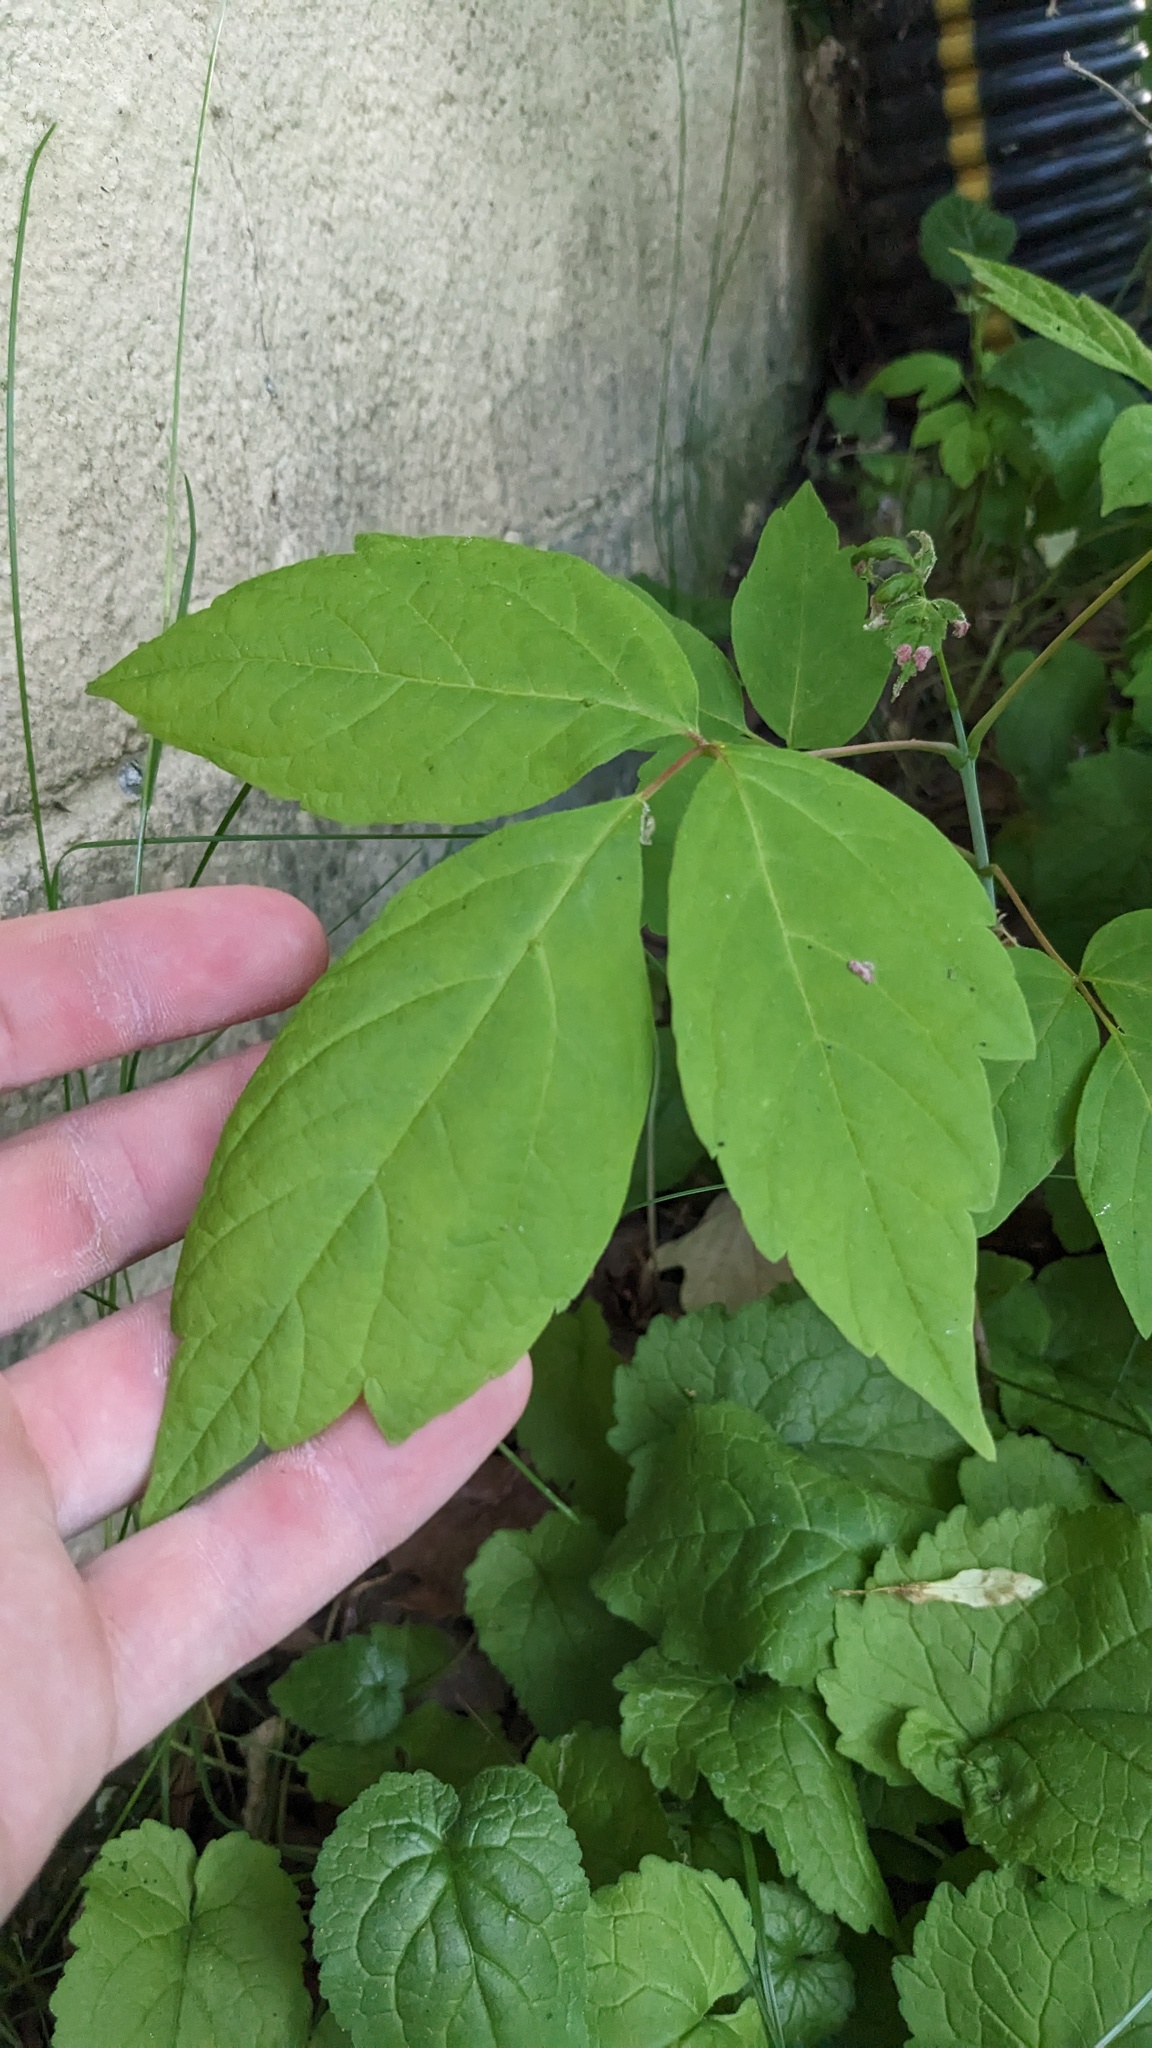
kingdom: Plantae
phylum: Tracheophyta
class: Magnoliopsida
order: Sapindales
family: Sapindaceae
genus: Acer
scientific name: Acer negundo
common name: Ashleaf maple
